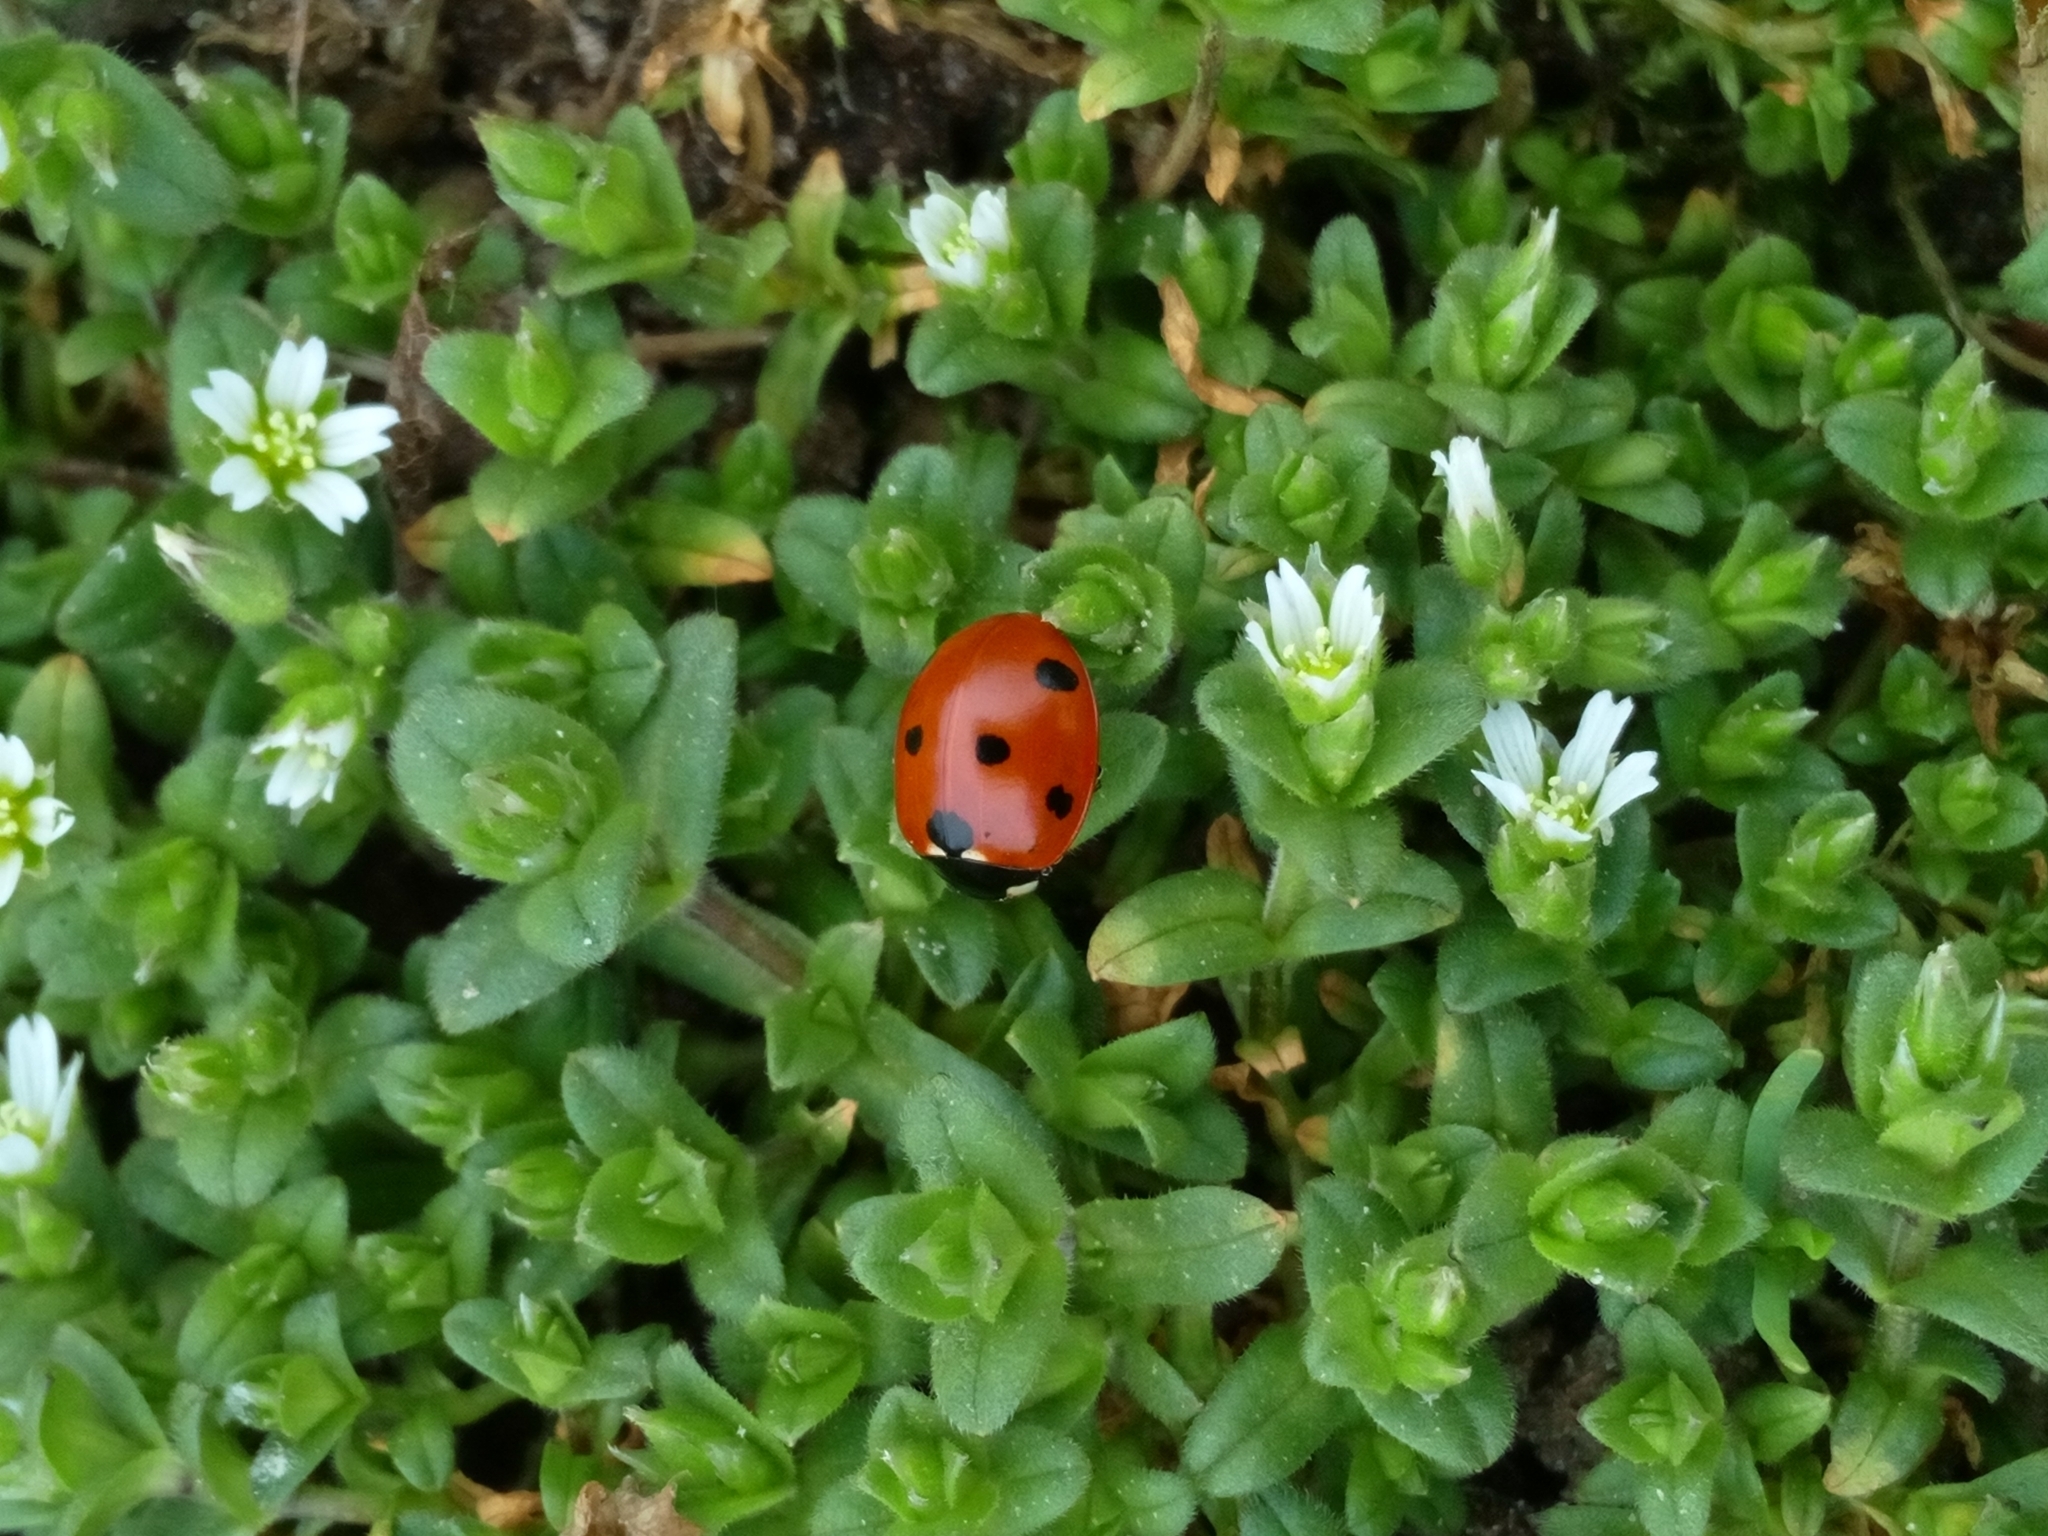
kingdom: Animalia
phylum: Arthropoda
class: Insecta
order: Coleoptera
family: Coccinellidae
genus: Coccinella
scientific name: Coccinella septempunctata
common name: Sevenspotted lady beetle
